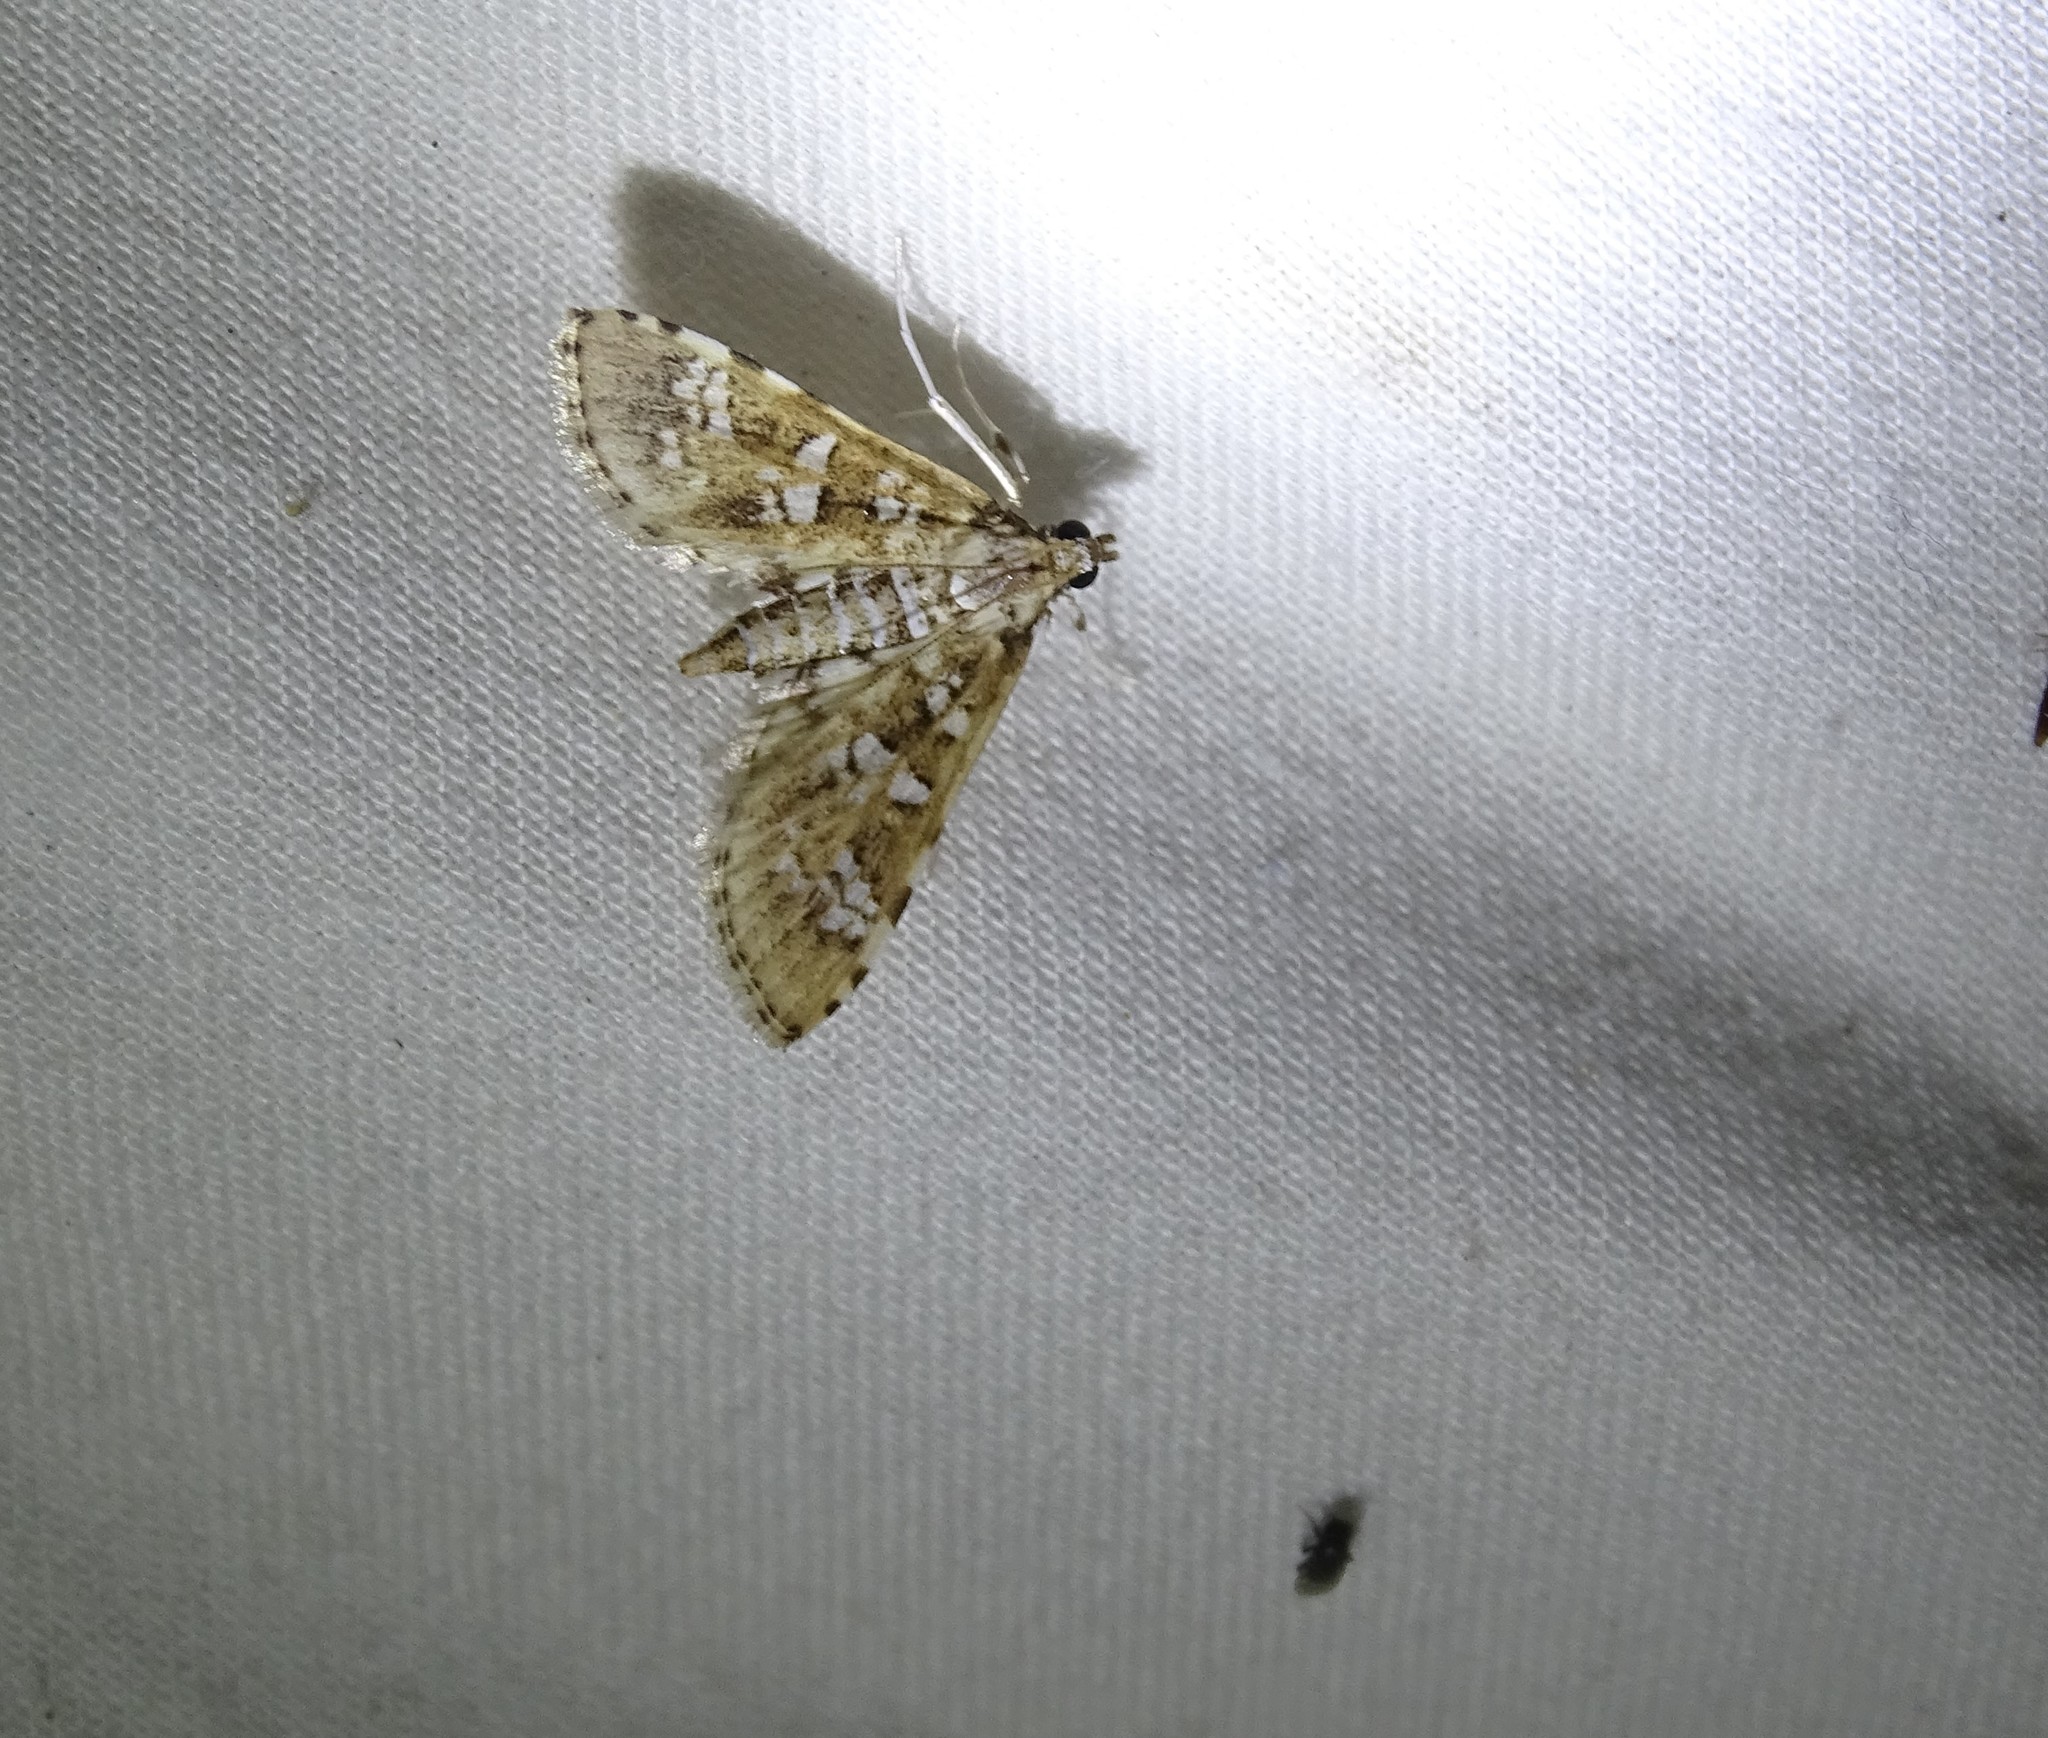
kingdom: Animalia
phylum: Arthropoda
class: Insecta
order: Lepidoptera
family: Crambidae
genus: Samea
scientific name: Samea multiplicalis
